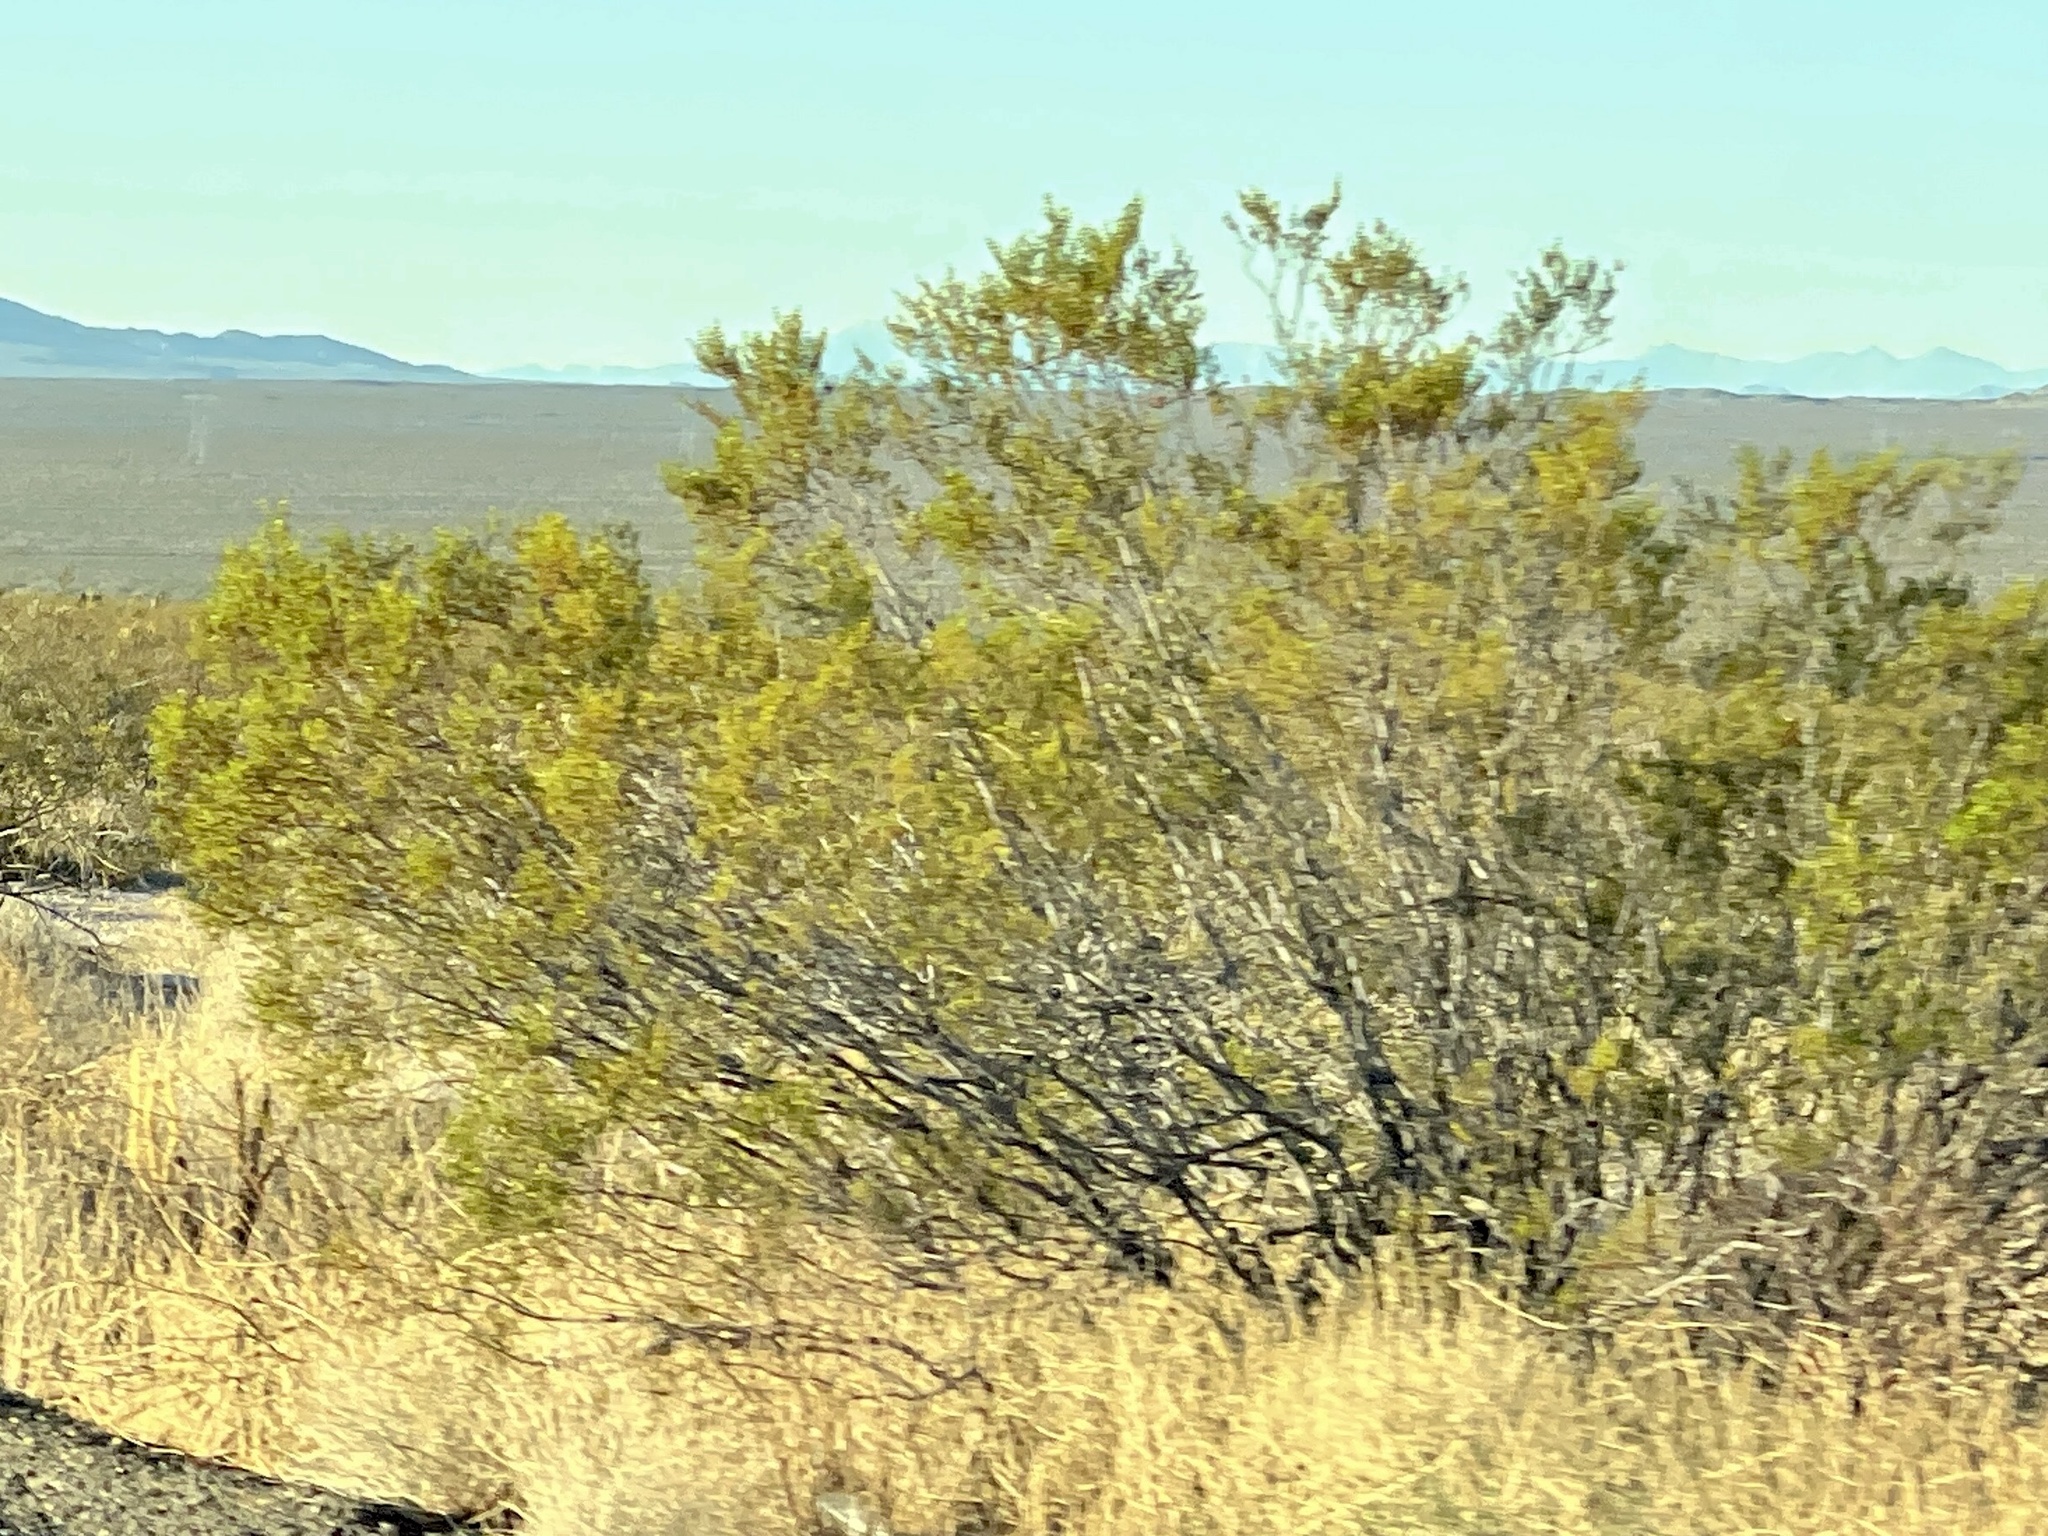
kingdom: Plantae
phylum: Tracheophyta
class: Magnoliopsida
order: Zygophyllales
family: Zygophyllaceae
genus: Larrea
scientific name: Larrea tridentata
